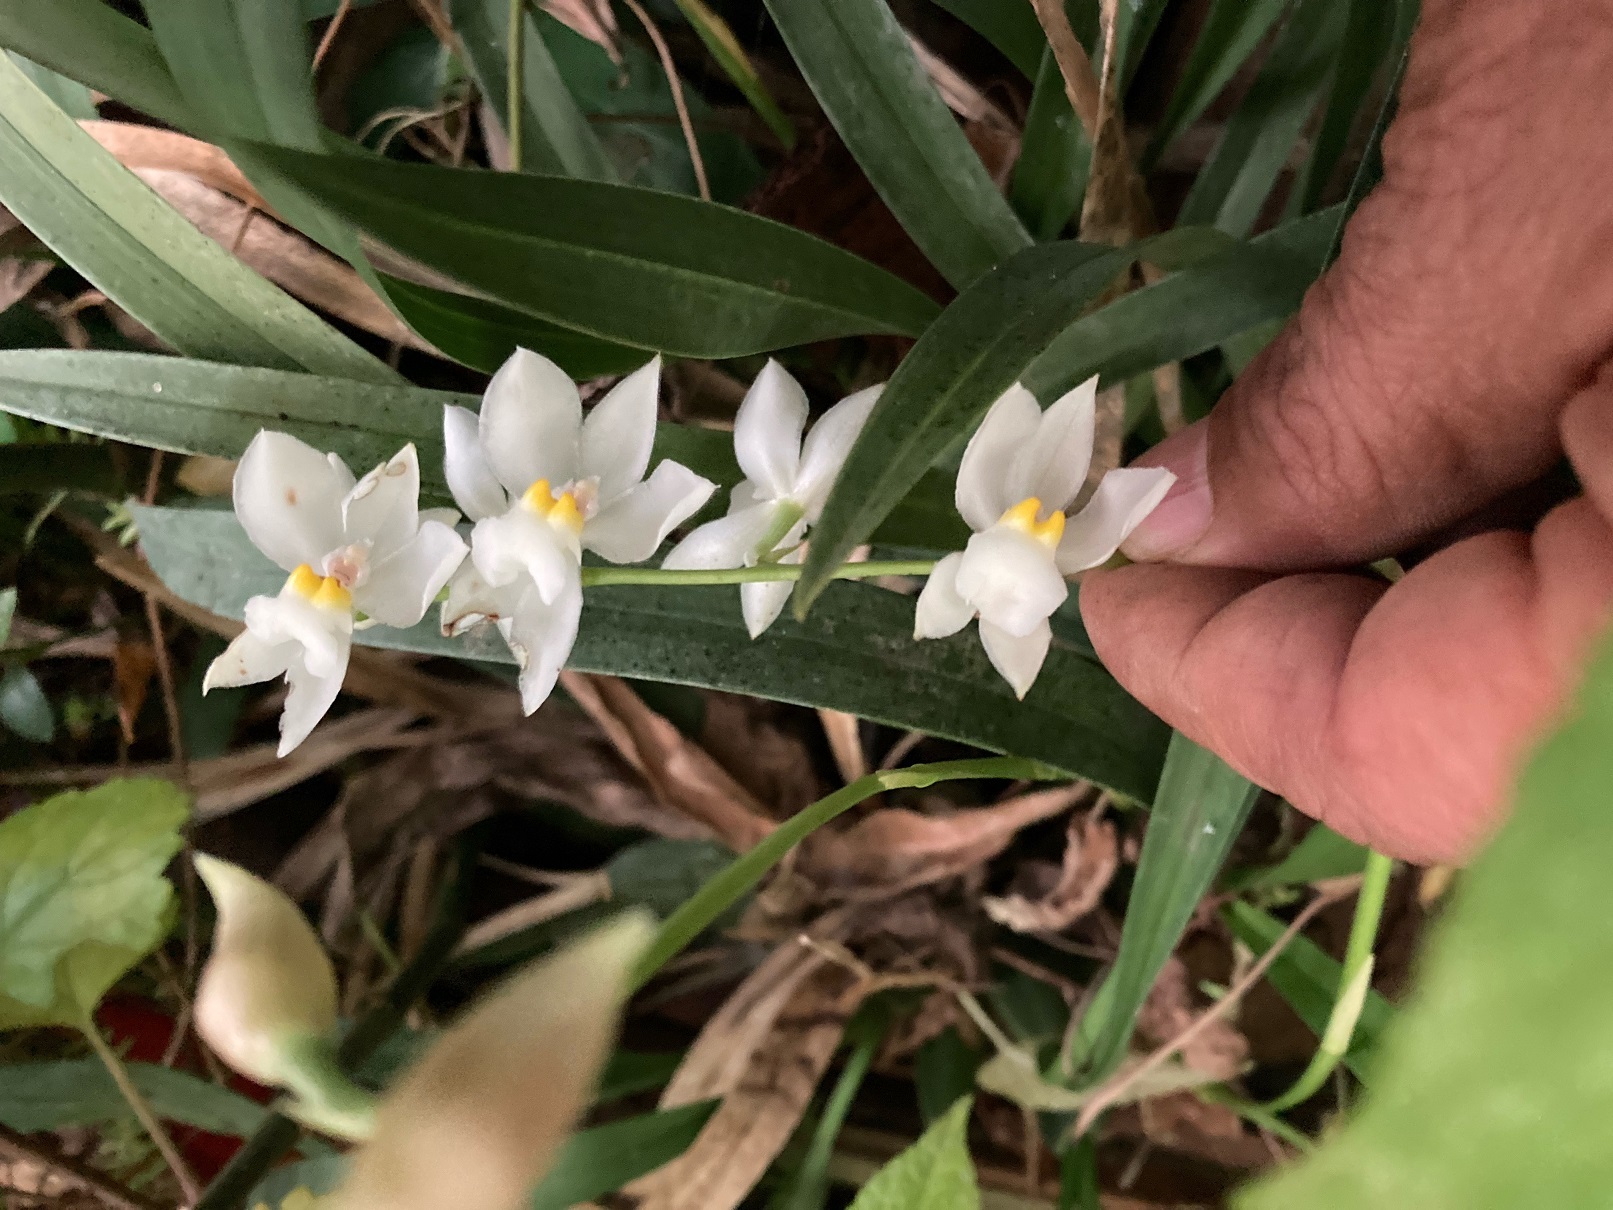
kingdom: Plantae
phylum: Tracheophyta
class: Liliopsida
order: Asparagales
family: Orchidaceae
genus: Cuitlauzina
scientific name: Cuitlauzina pulchella
